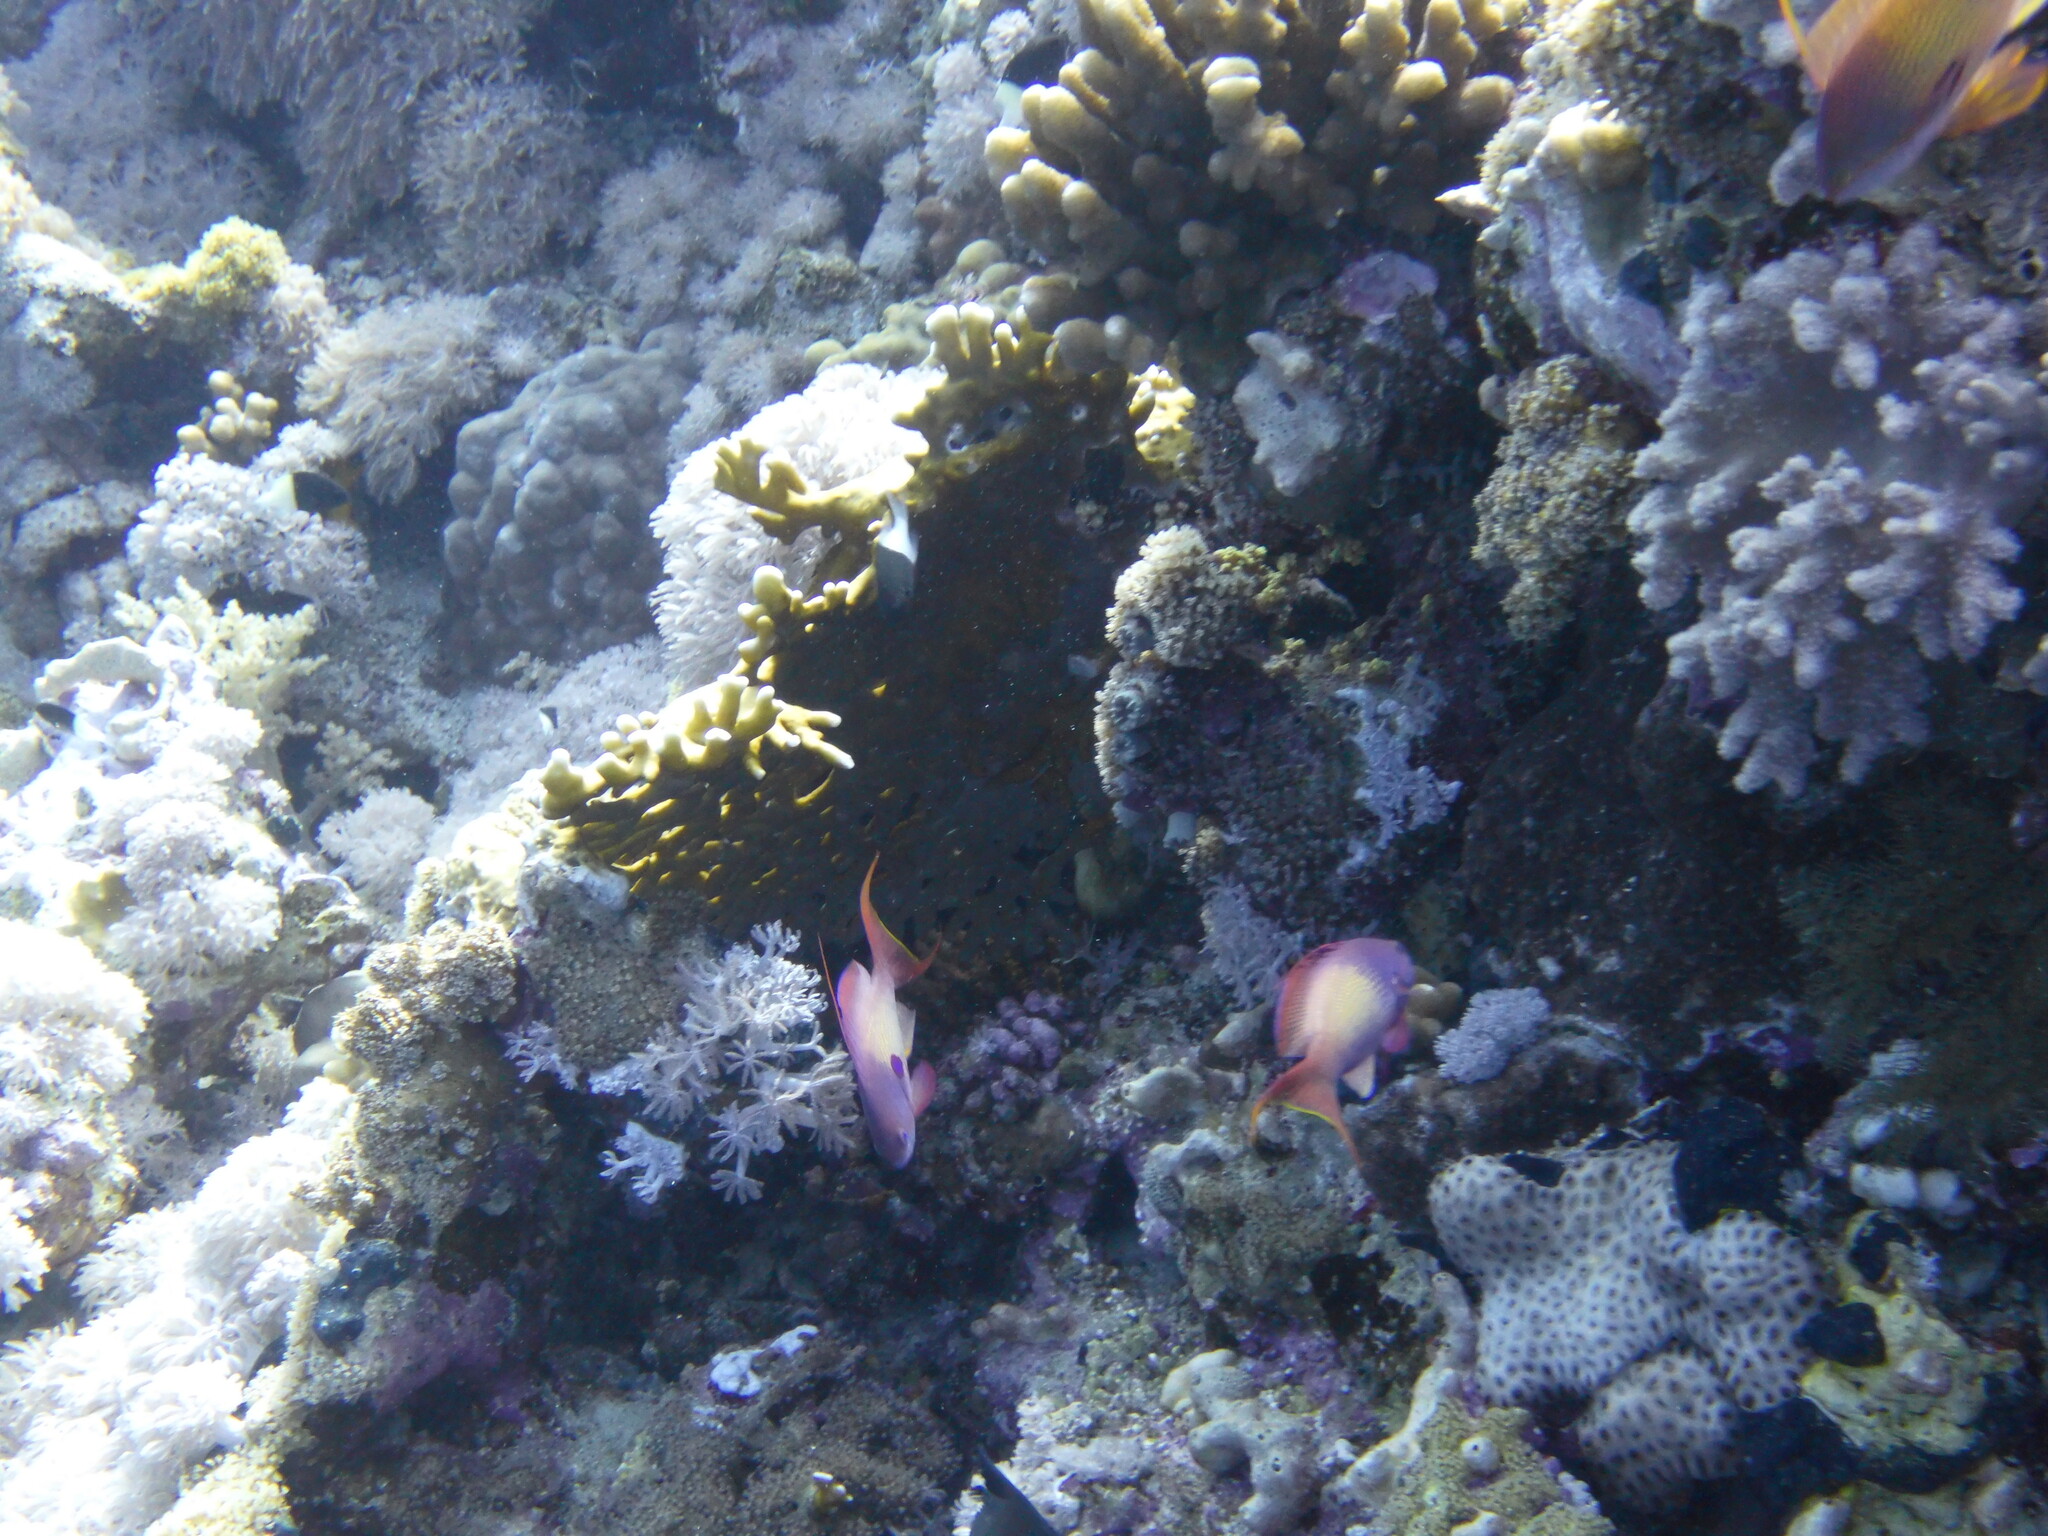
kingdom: Animalia
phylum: Chordata
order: Perciformes
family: Serranidae
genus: Pseudanthias
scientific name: Pseudanthias squamipinnis
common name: Scalefin anthias
